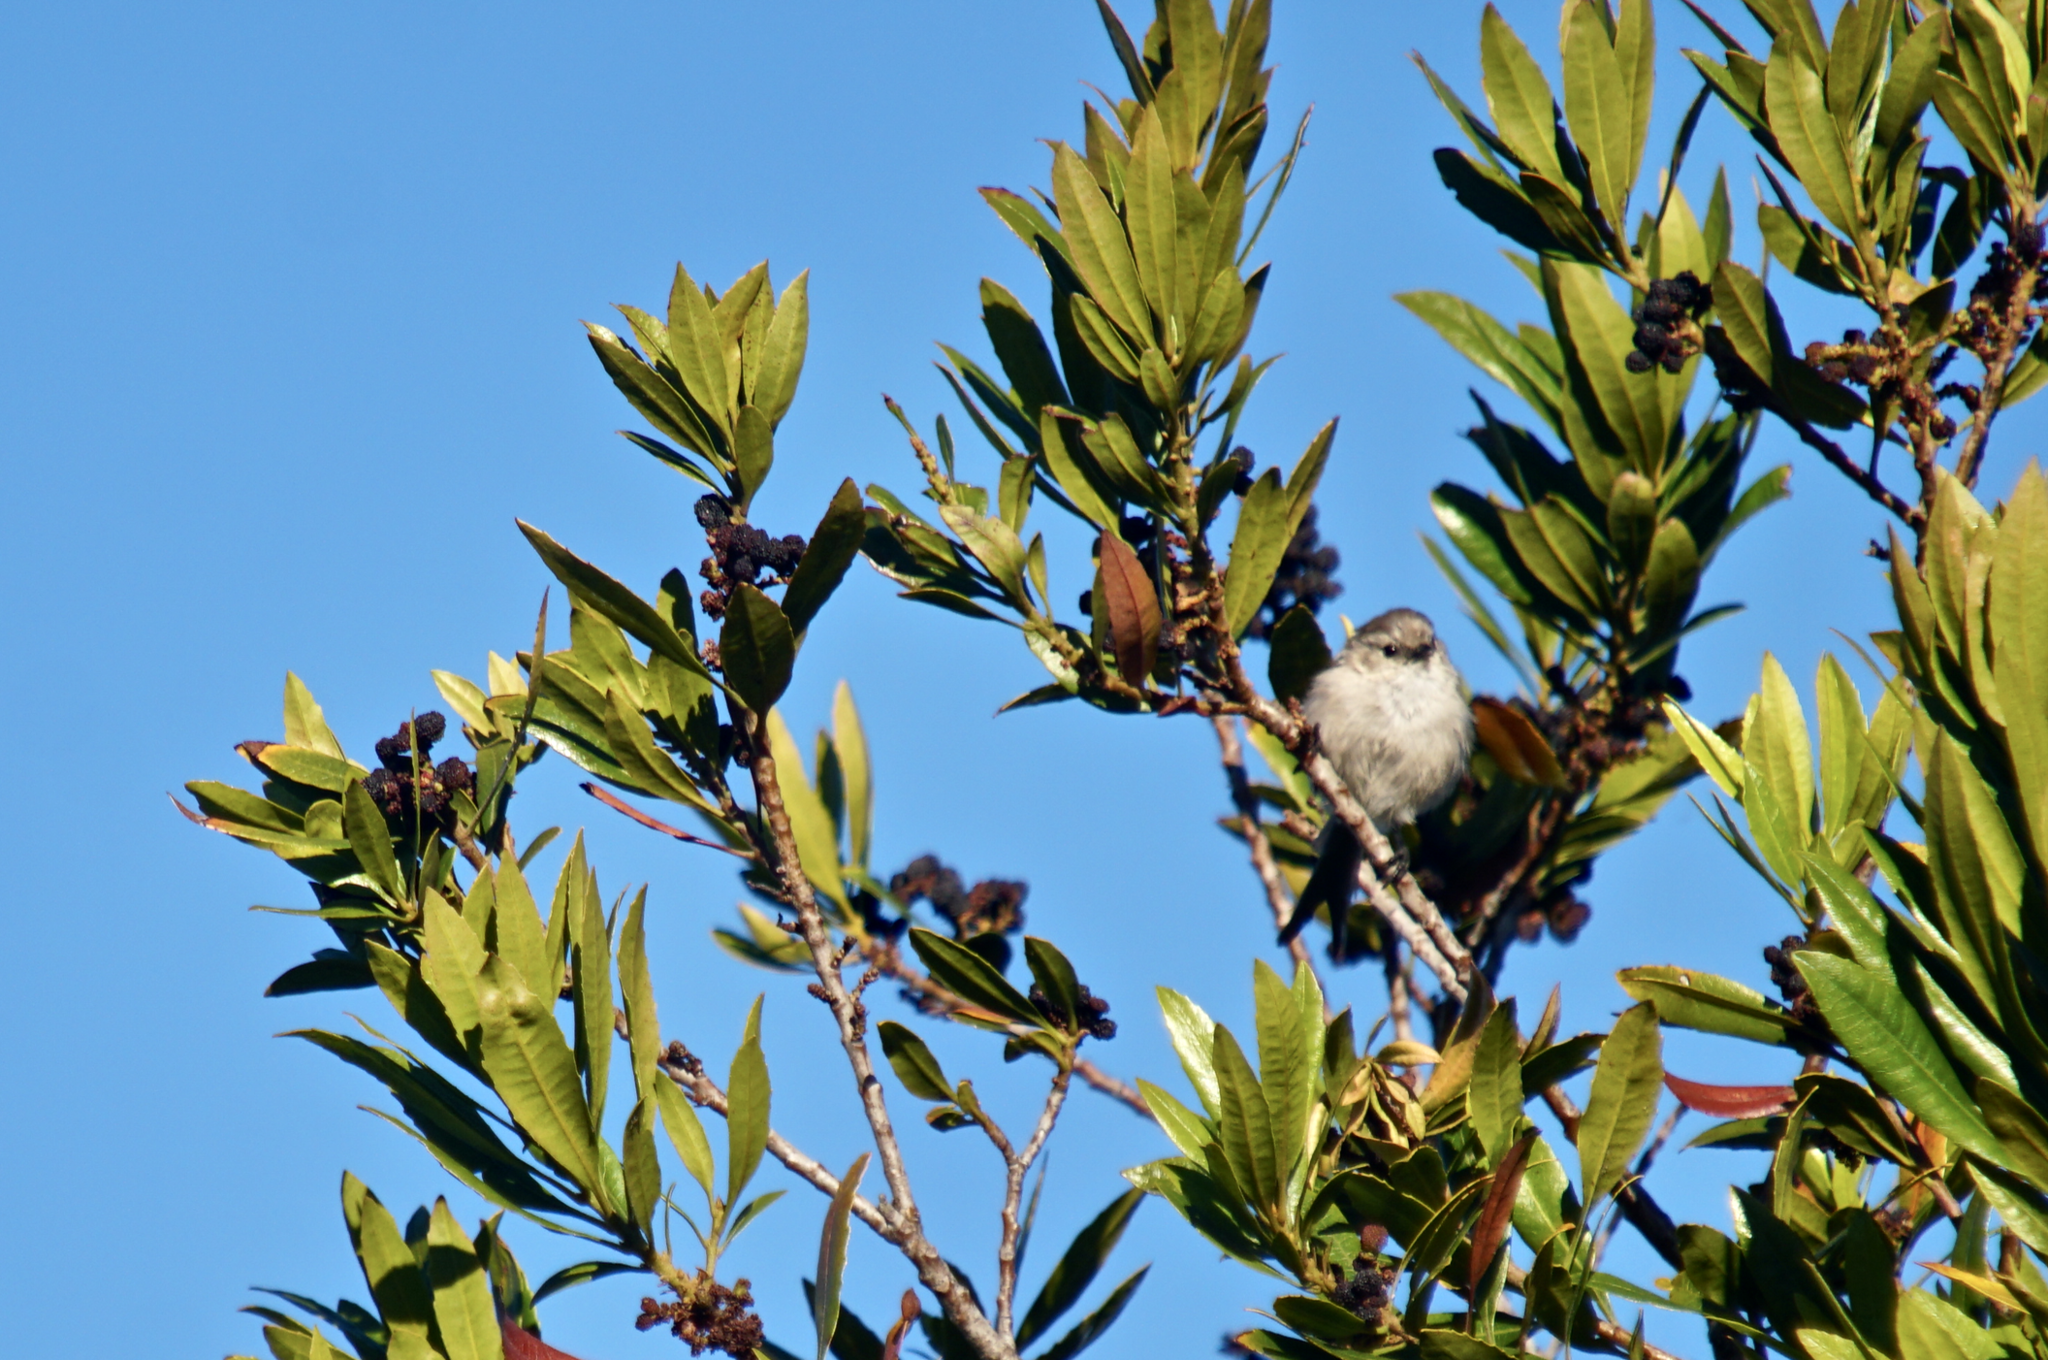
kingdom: Animalia
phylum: Chordata
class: Aves
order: Passeriformes
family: Aegithalidae
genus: Psaltriparus
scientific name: Psaltriparus minimus
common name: American bushtit
